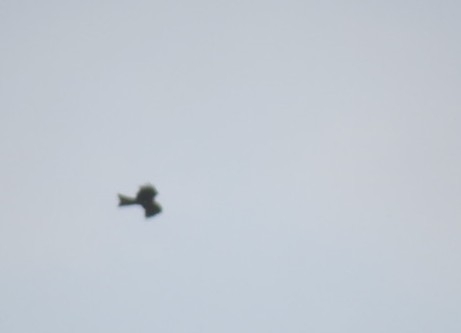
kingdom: Animalia
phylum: Chordata
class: Aves
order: Accipitriformes
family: Accipitridae
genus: Milvus
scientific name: Milvus migrans
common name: Black kite
